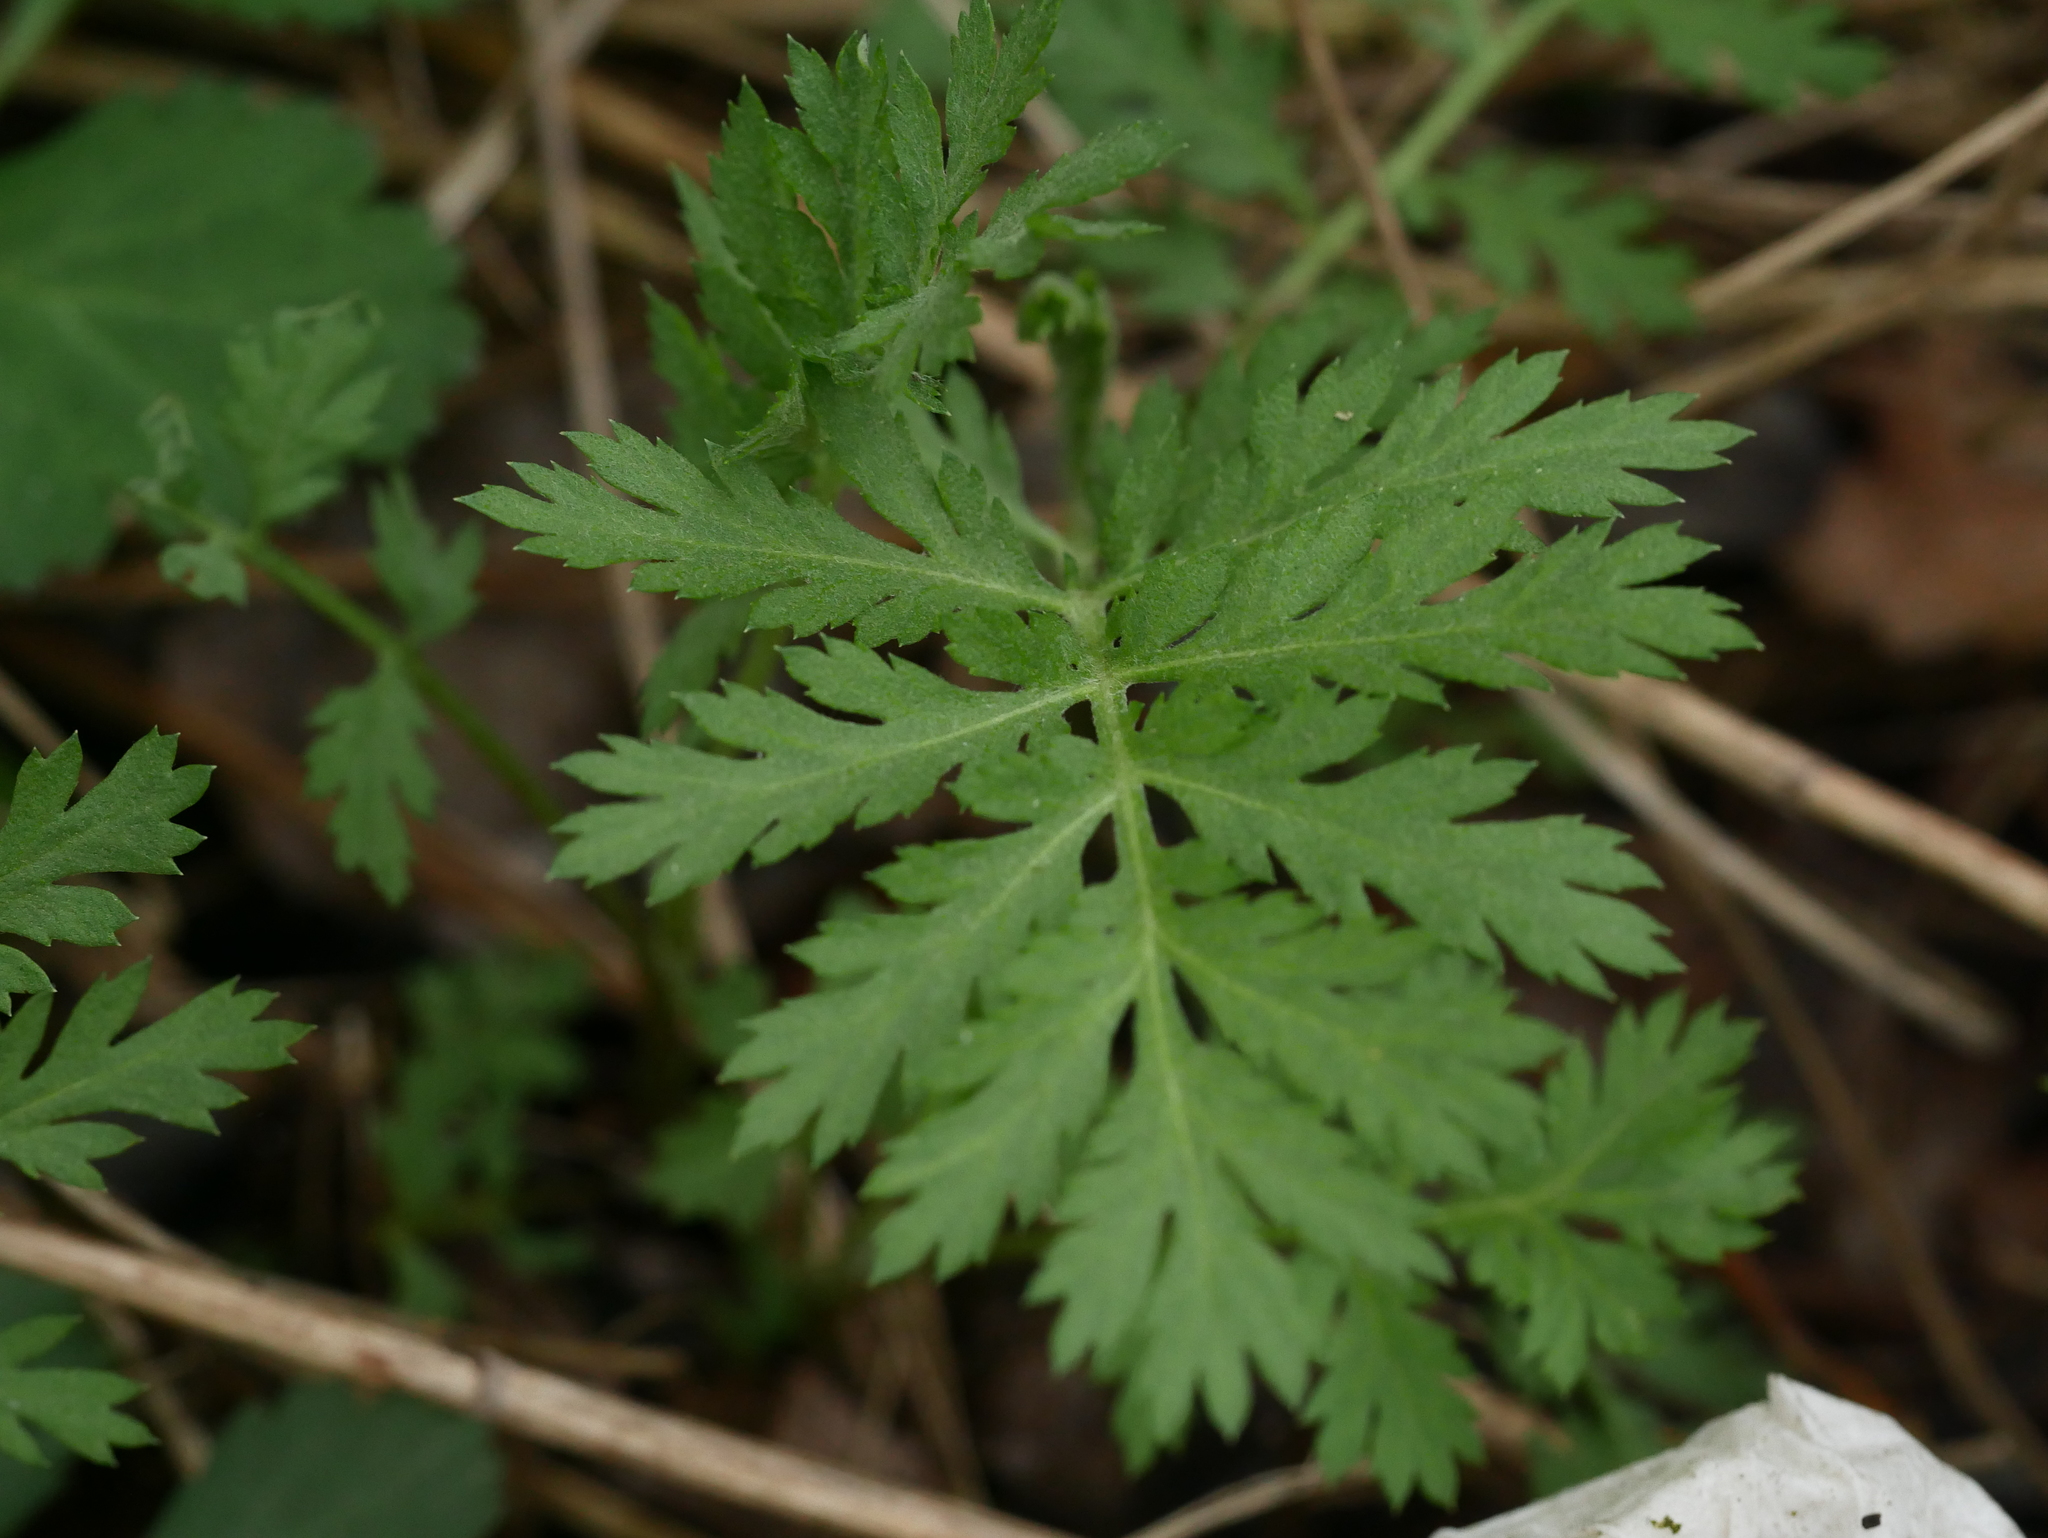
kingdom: Plantae
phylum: Tracheophyta
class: Magnoliopsida
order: Asterales
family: Asteraceae
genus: Tanacetum
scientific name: Tanacetum vulgare
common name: Common tansy
